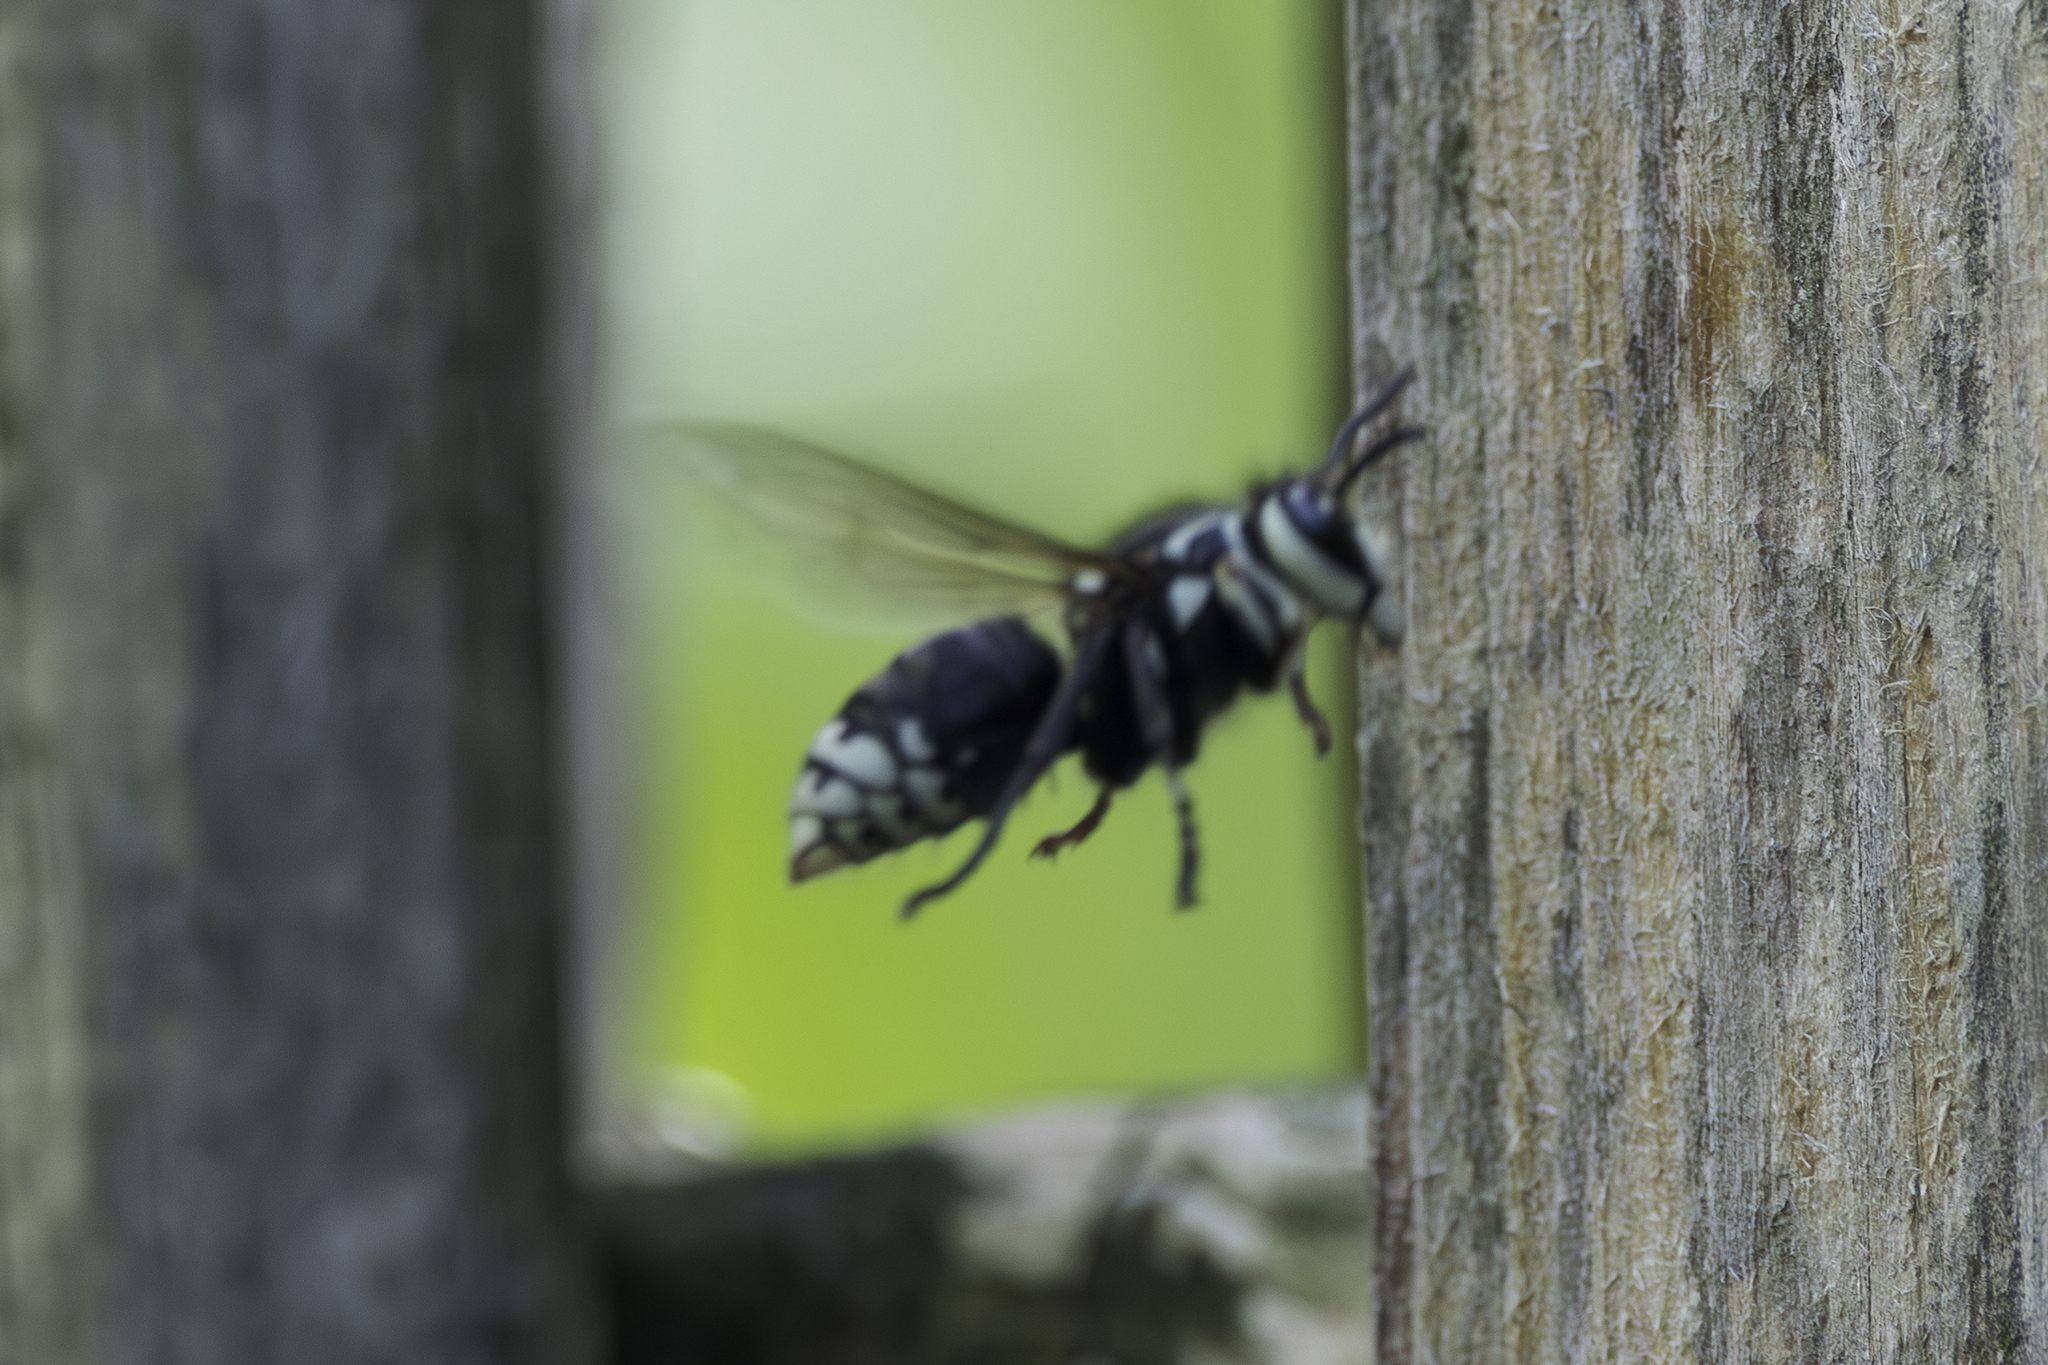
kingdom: Animalia
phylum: Arthropoda
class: Insecta
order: Hymenoptera
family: Vespidae
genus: Dolichovespula
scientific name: Dolichovespula maculata
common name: Bald-faced hornet
